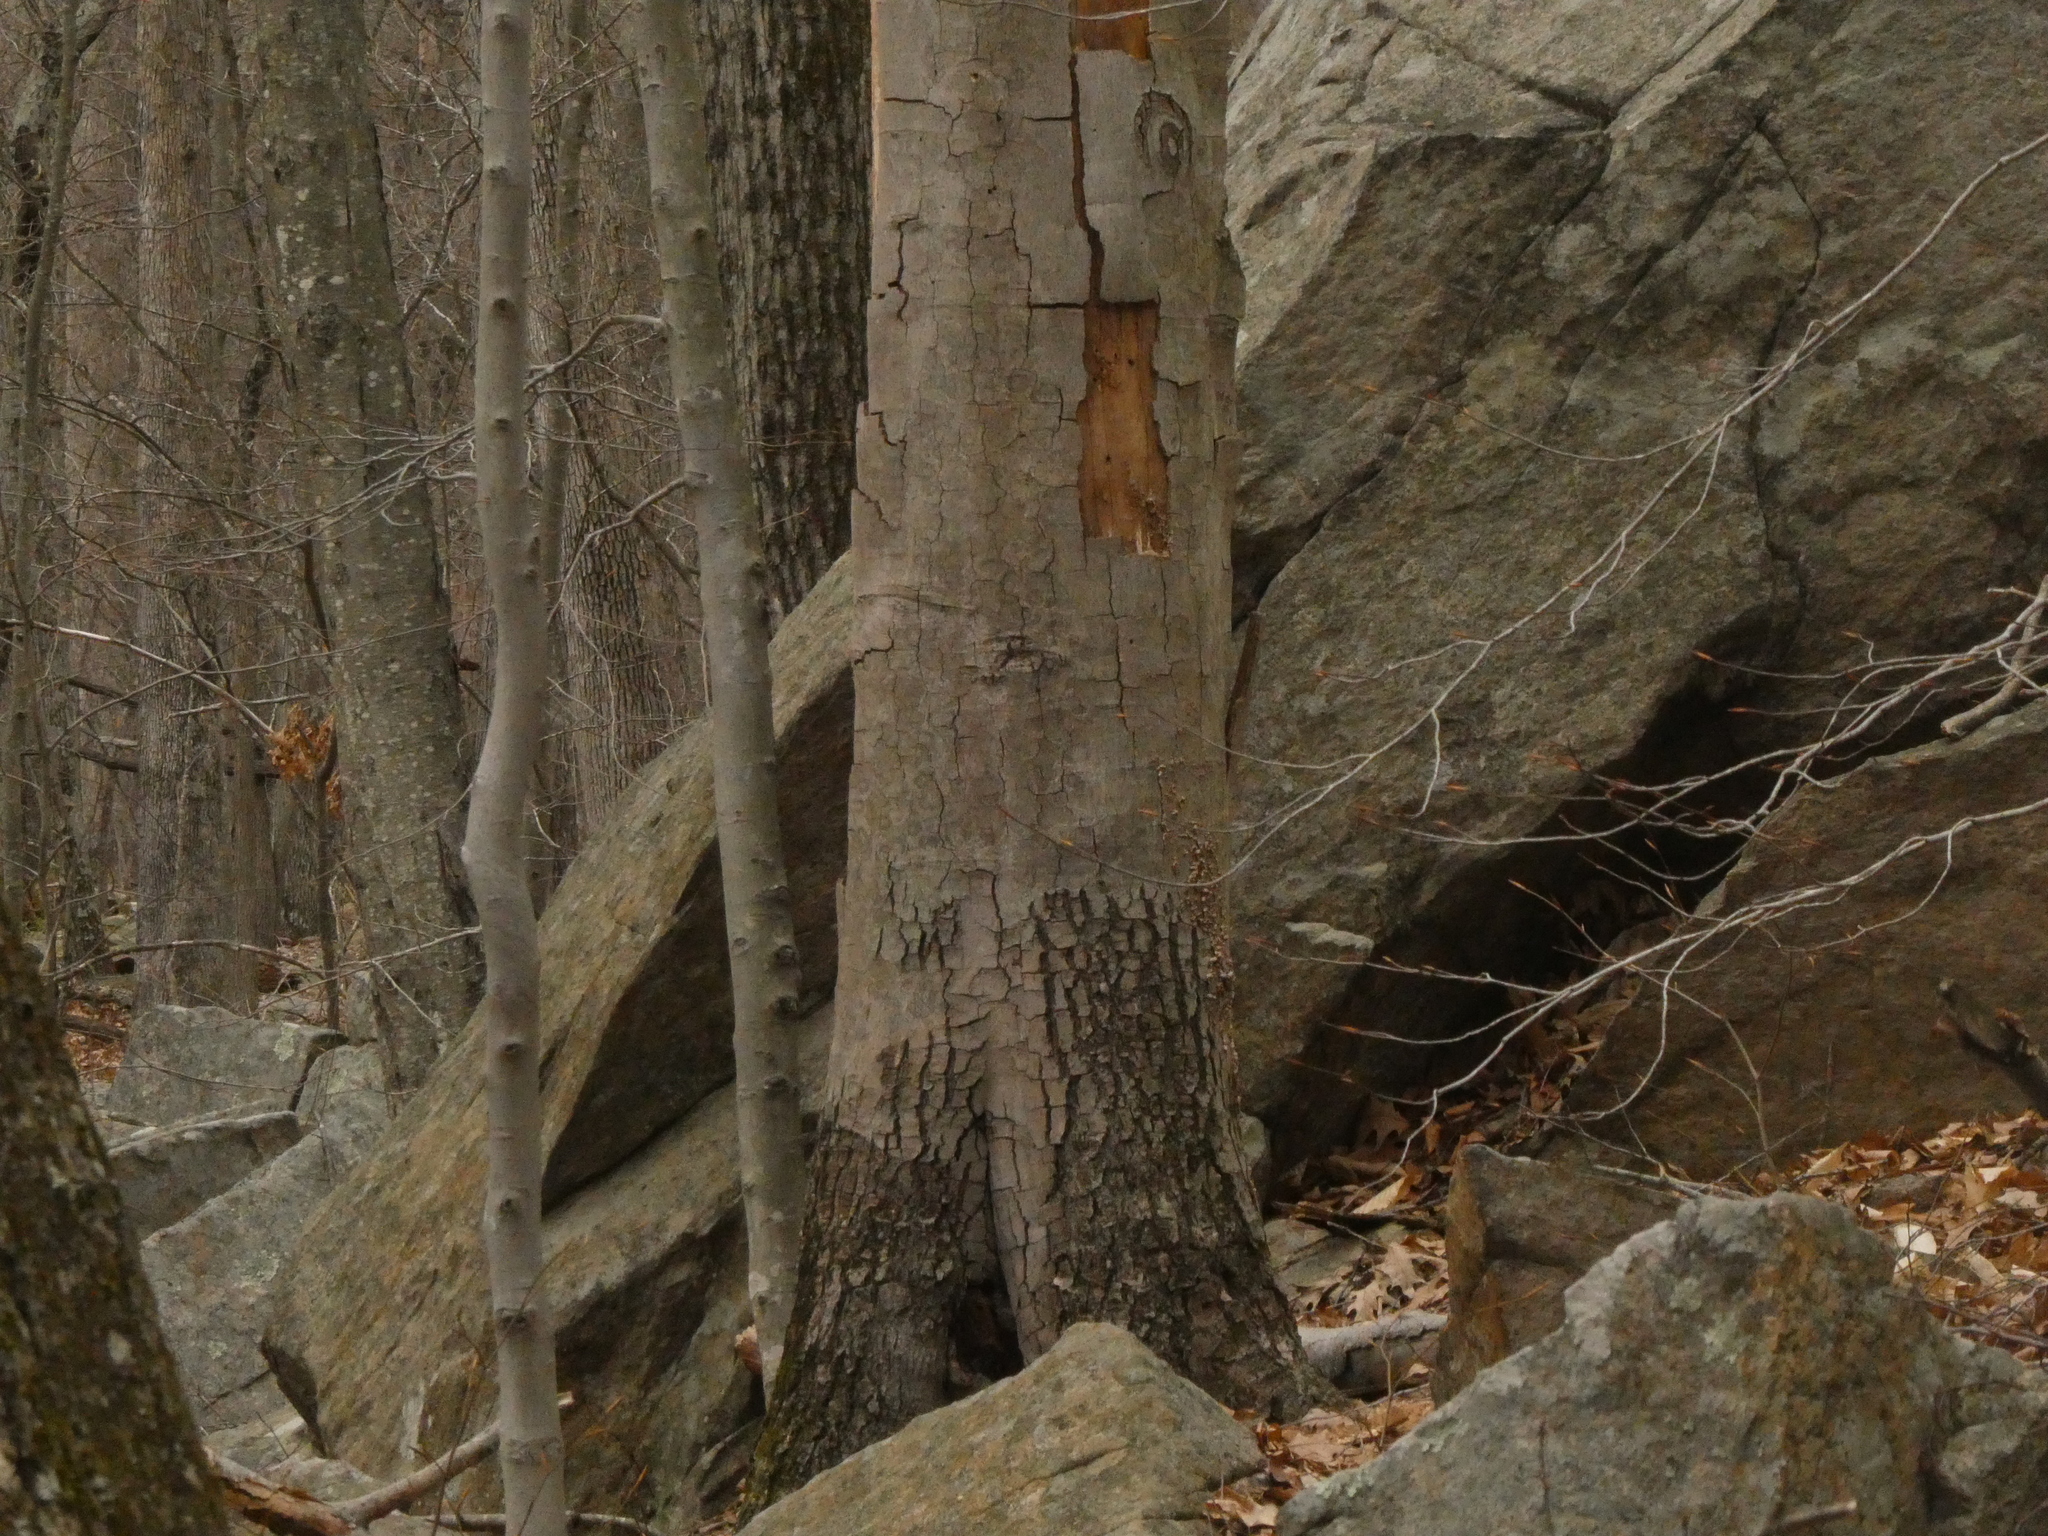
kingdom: Plantae
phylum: Tracheophyta
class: Magnoliopsida
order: Fagales
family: Fagaceae
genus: Fagus
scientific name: Fagus grandifolia
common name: American beech
